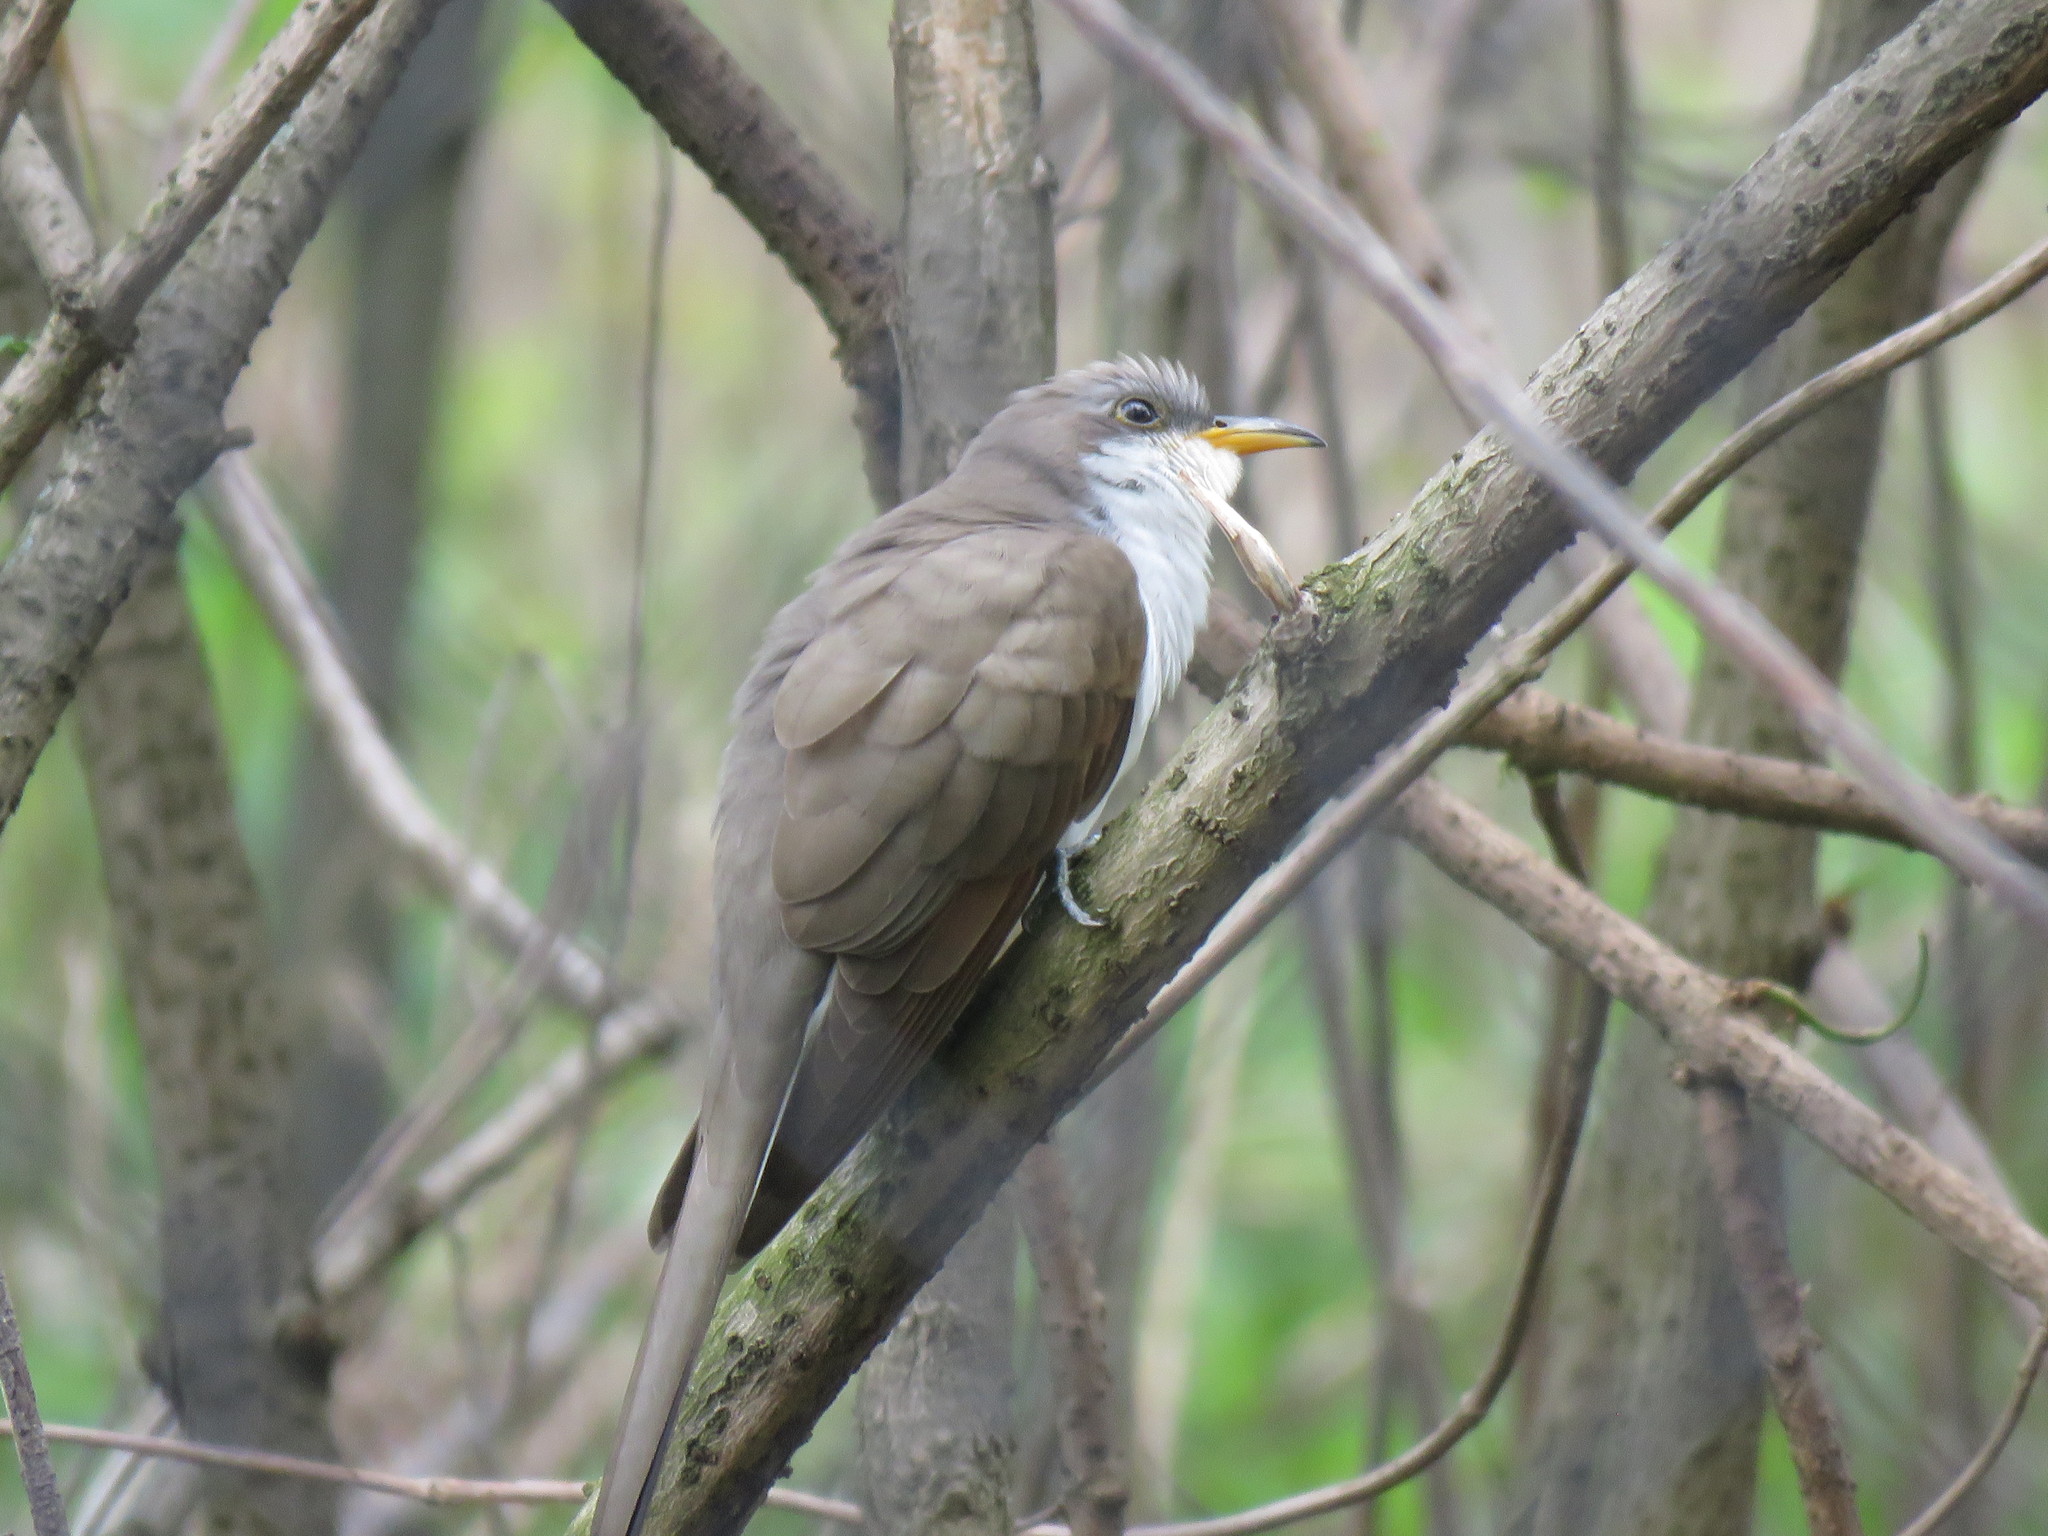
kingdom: Animalia
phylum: Chordata
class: Aves
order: Cuculiformes
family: Cuculidae
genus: Coccyzus
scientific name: Coccyzus americanus
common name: Yellow-billed cuckoo
